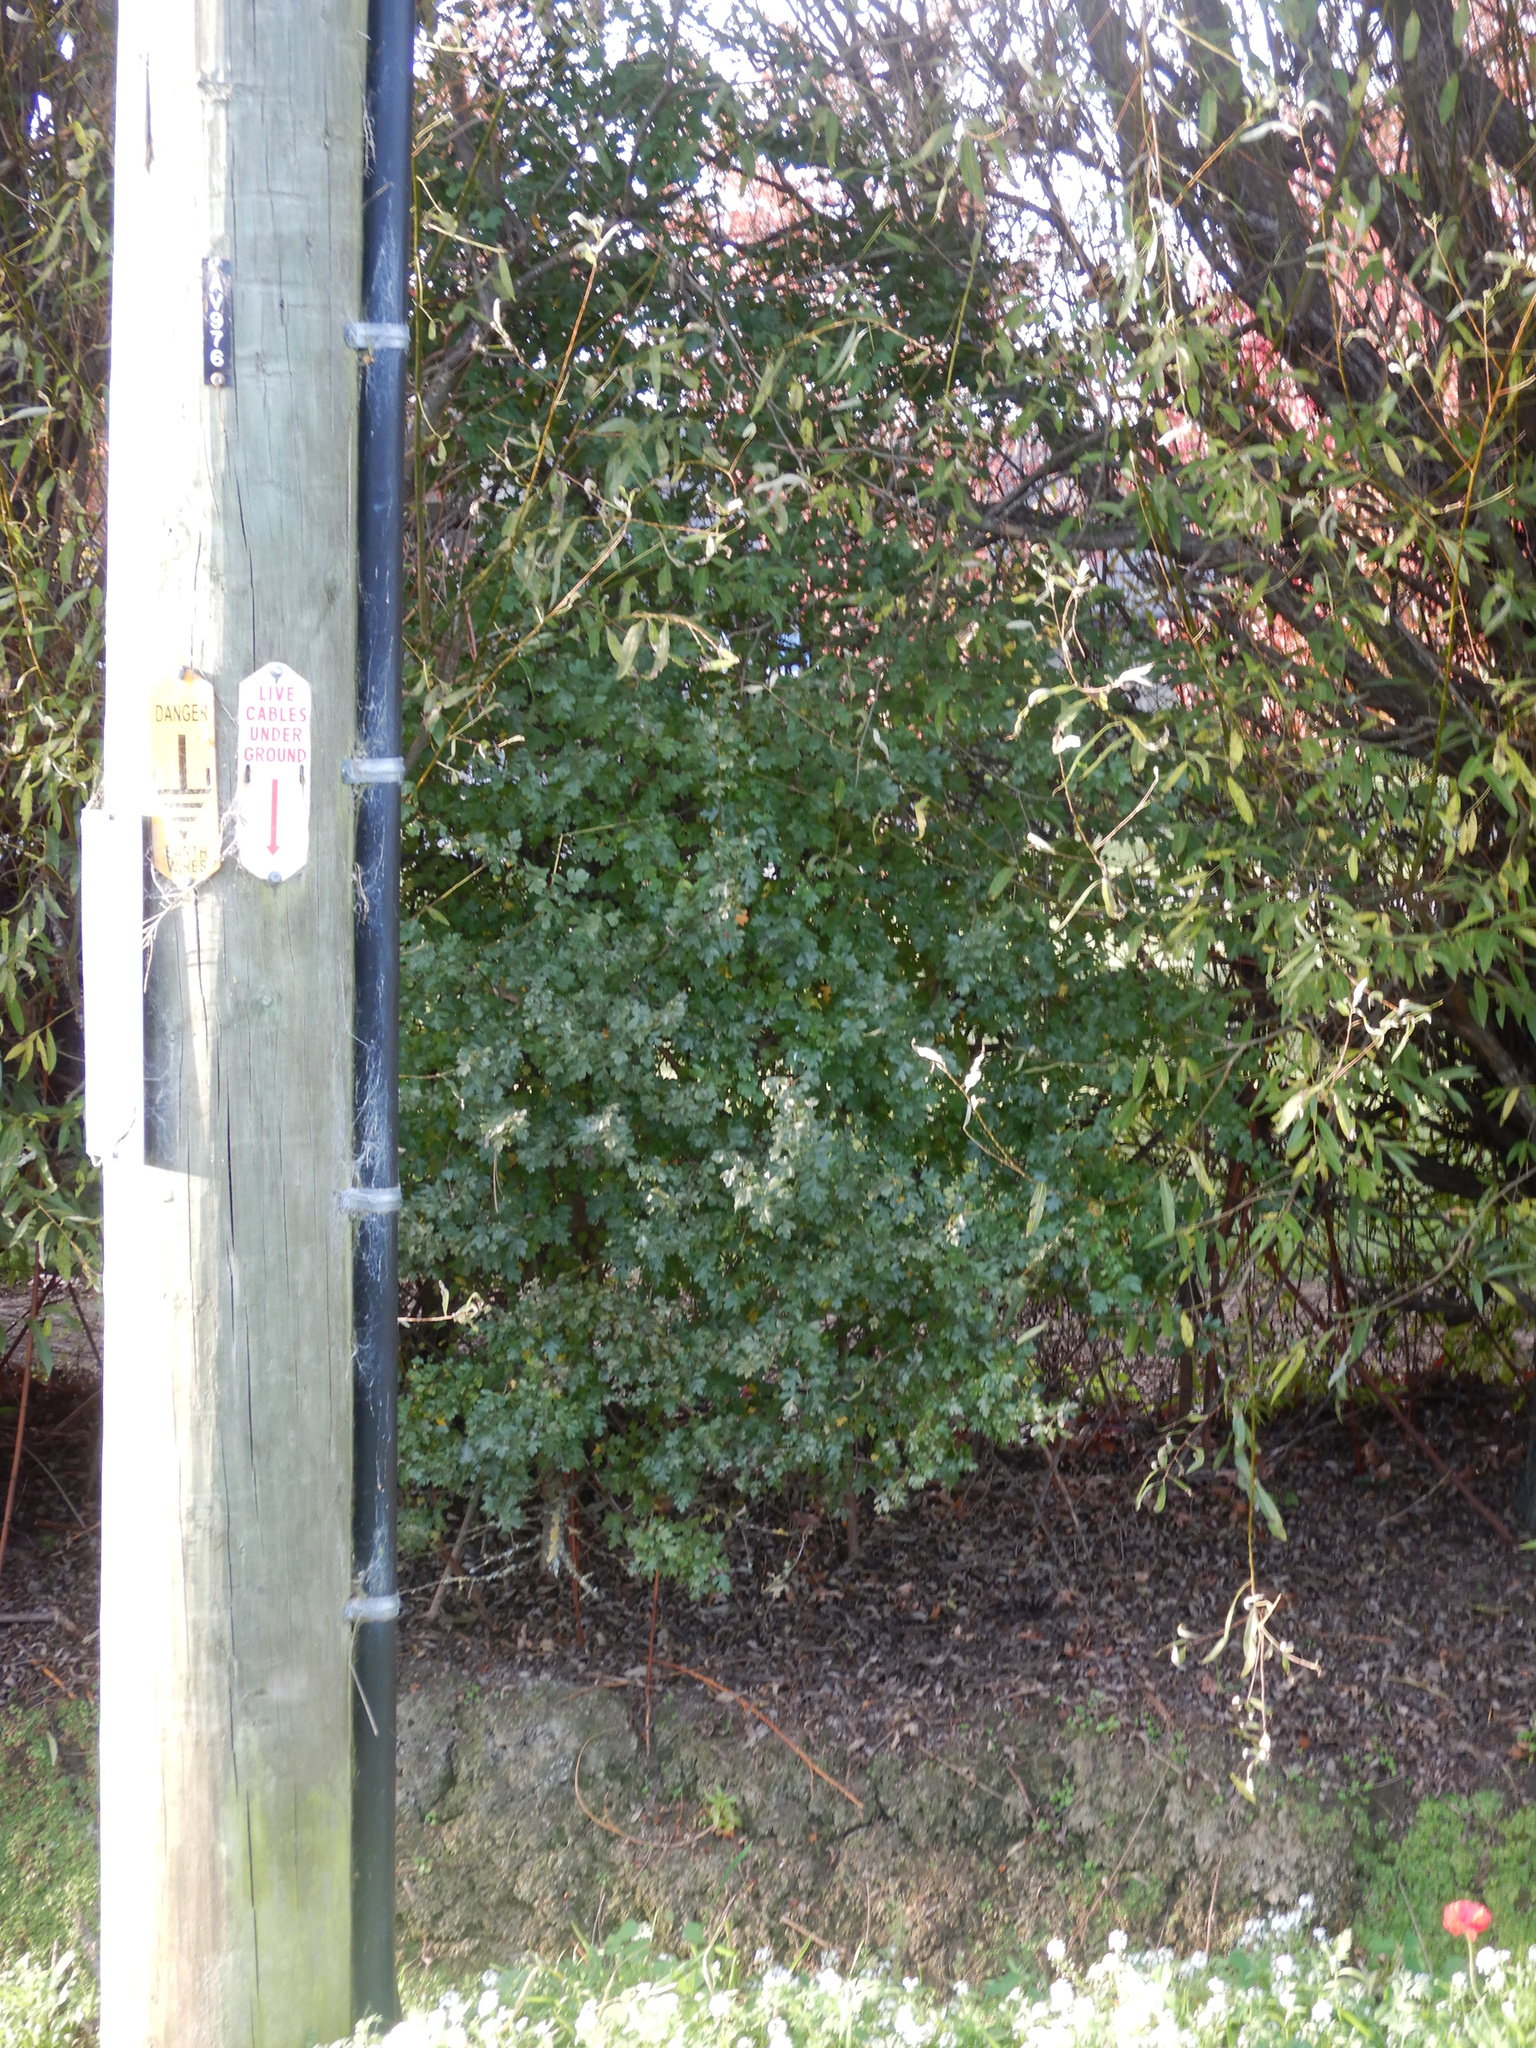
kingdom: Plantae
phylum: Tracheophyta
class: Magnoliopsida
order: Rosales
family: Rosaceae
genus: Crataegus
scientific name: Crataegus monogyna
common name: Hawthorn
